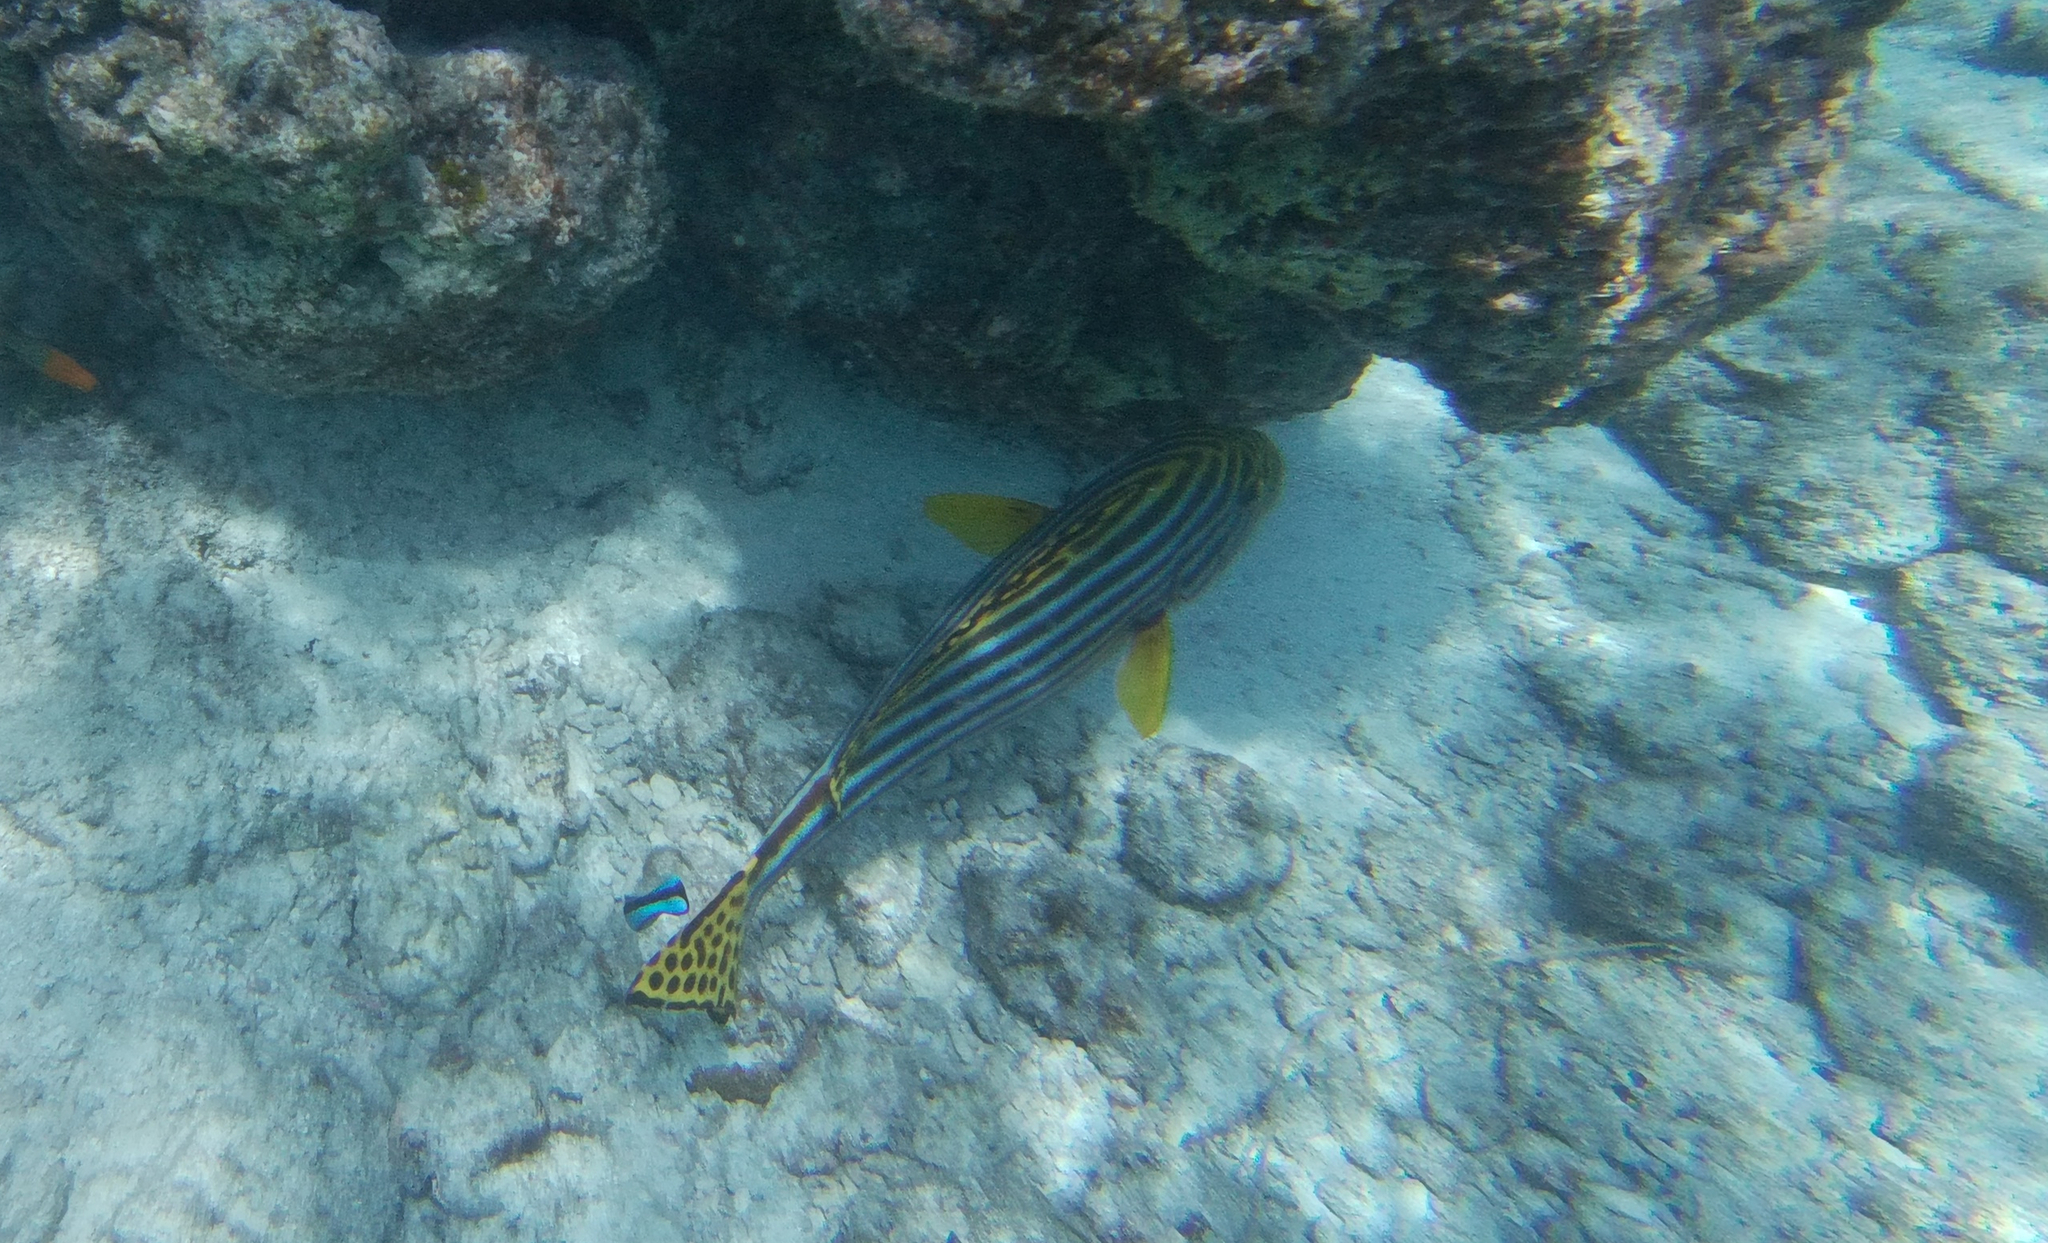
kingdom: Animalia
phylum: Chordata
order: Perciformes
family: Haemulidae
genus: Plectorhinchus
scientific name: Plectorhinchus vittatus
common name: Oriental sweetlips
